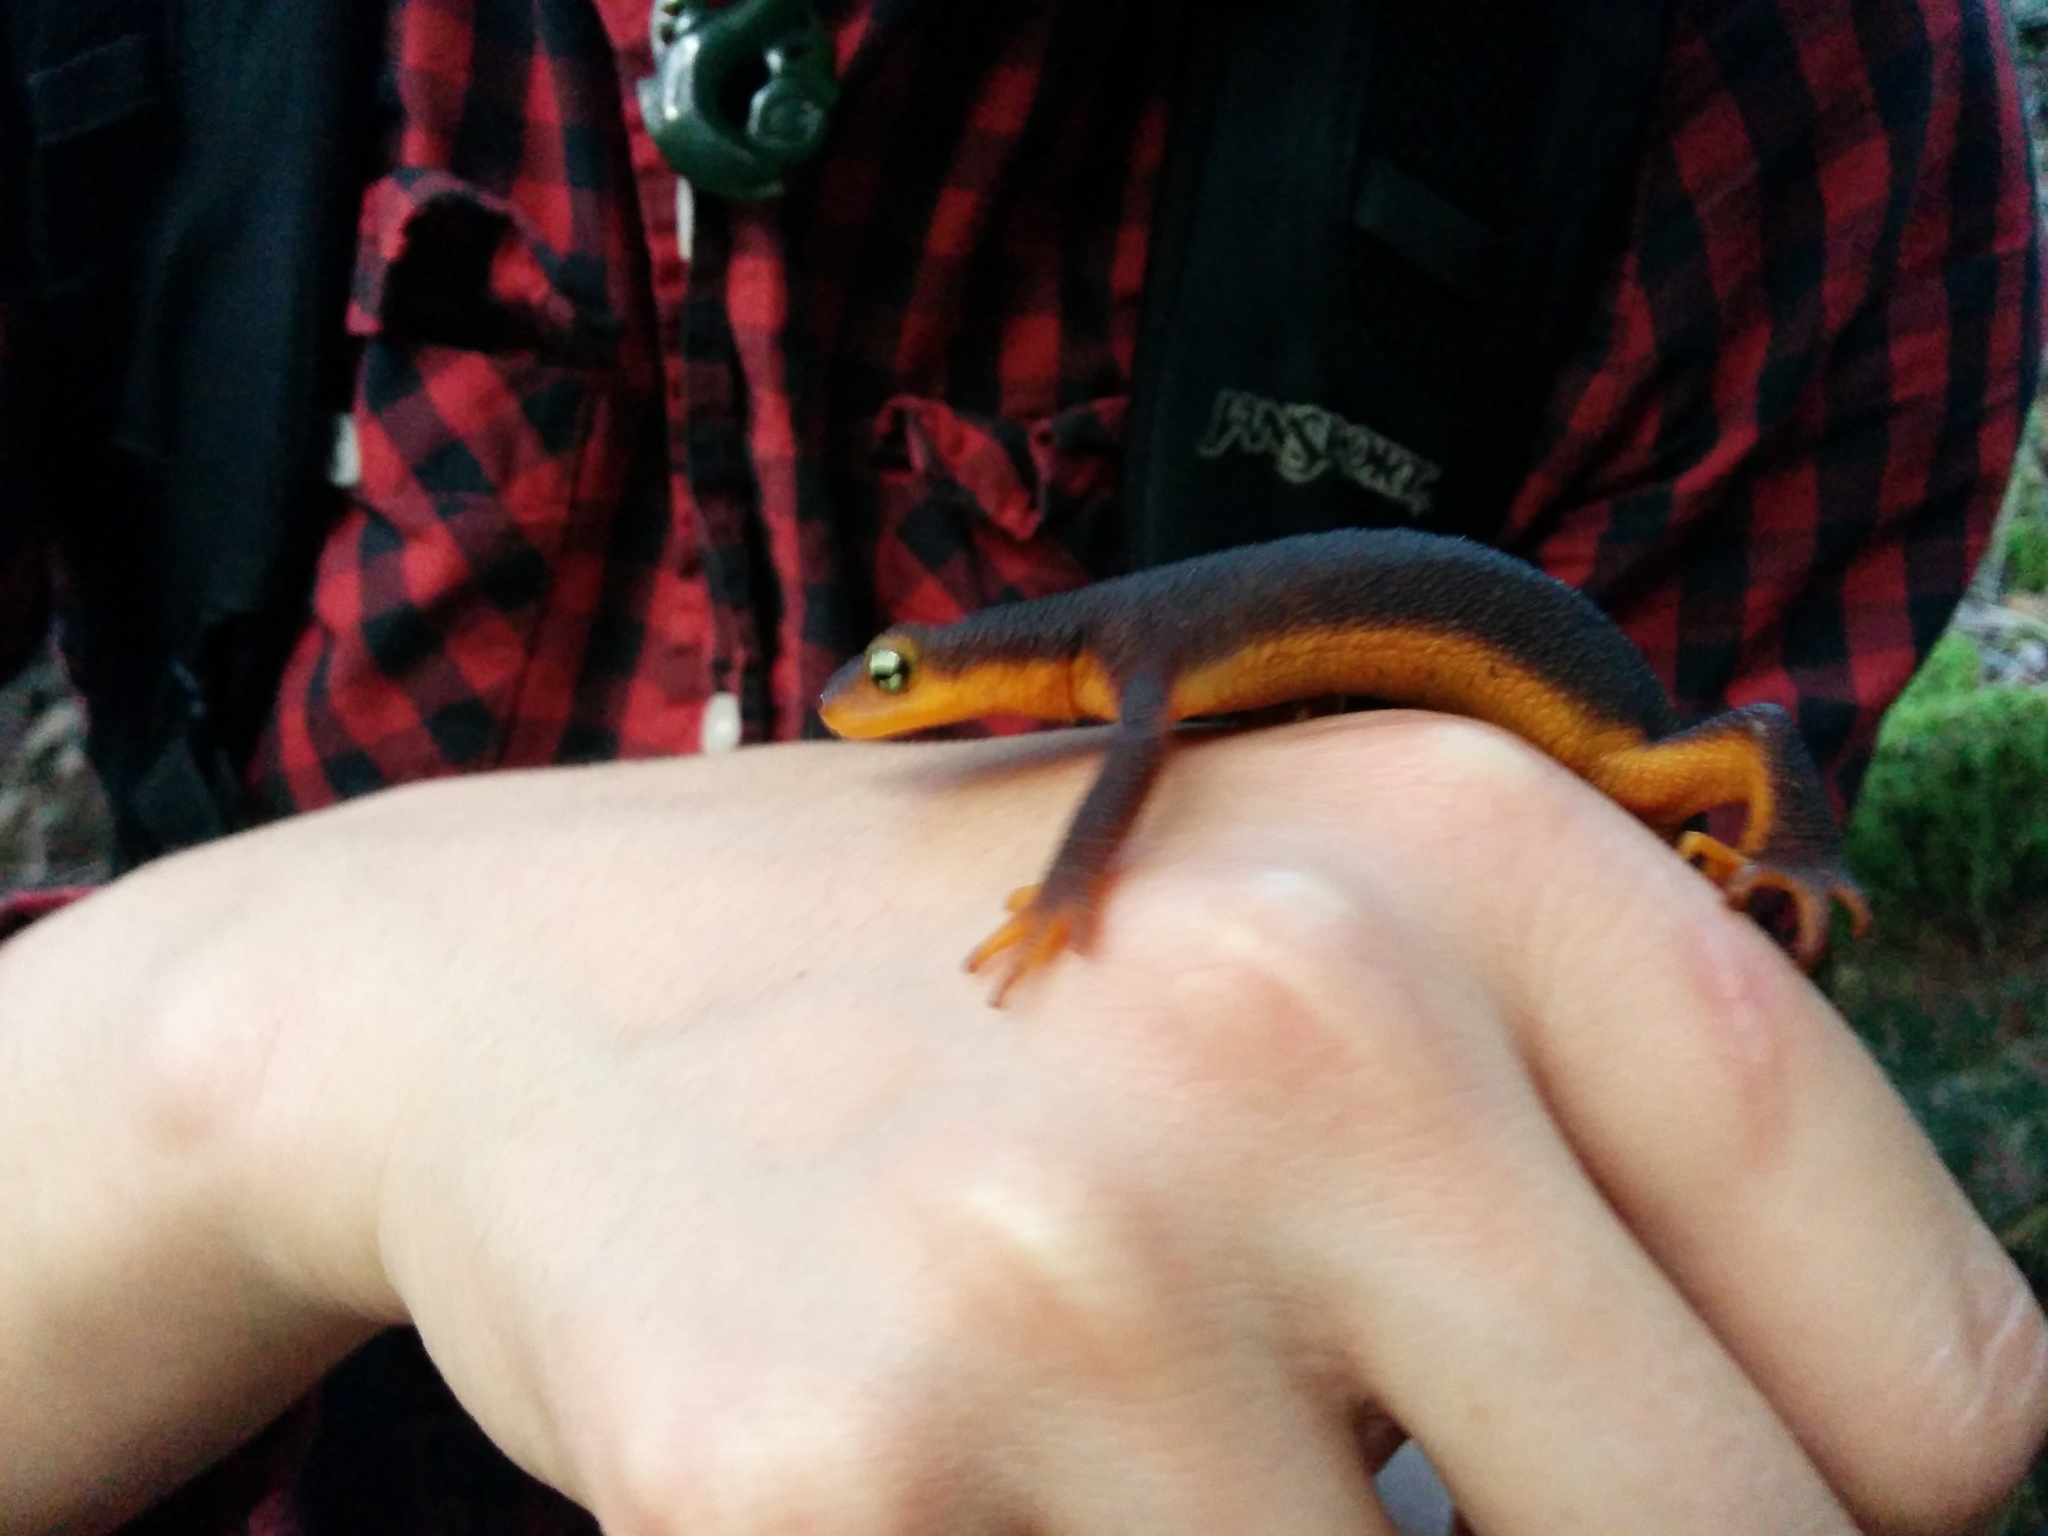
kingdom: Animalia
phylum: Chordata
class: Amphibia
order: Caudata
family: Salamandridae
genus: Taricha
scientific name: Taricha torosa
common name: California newt
